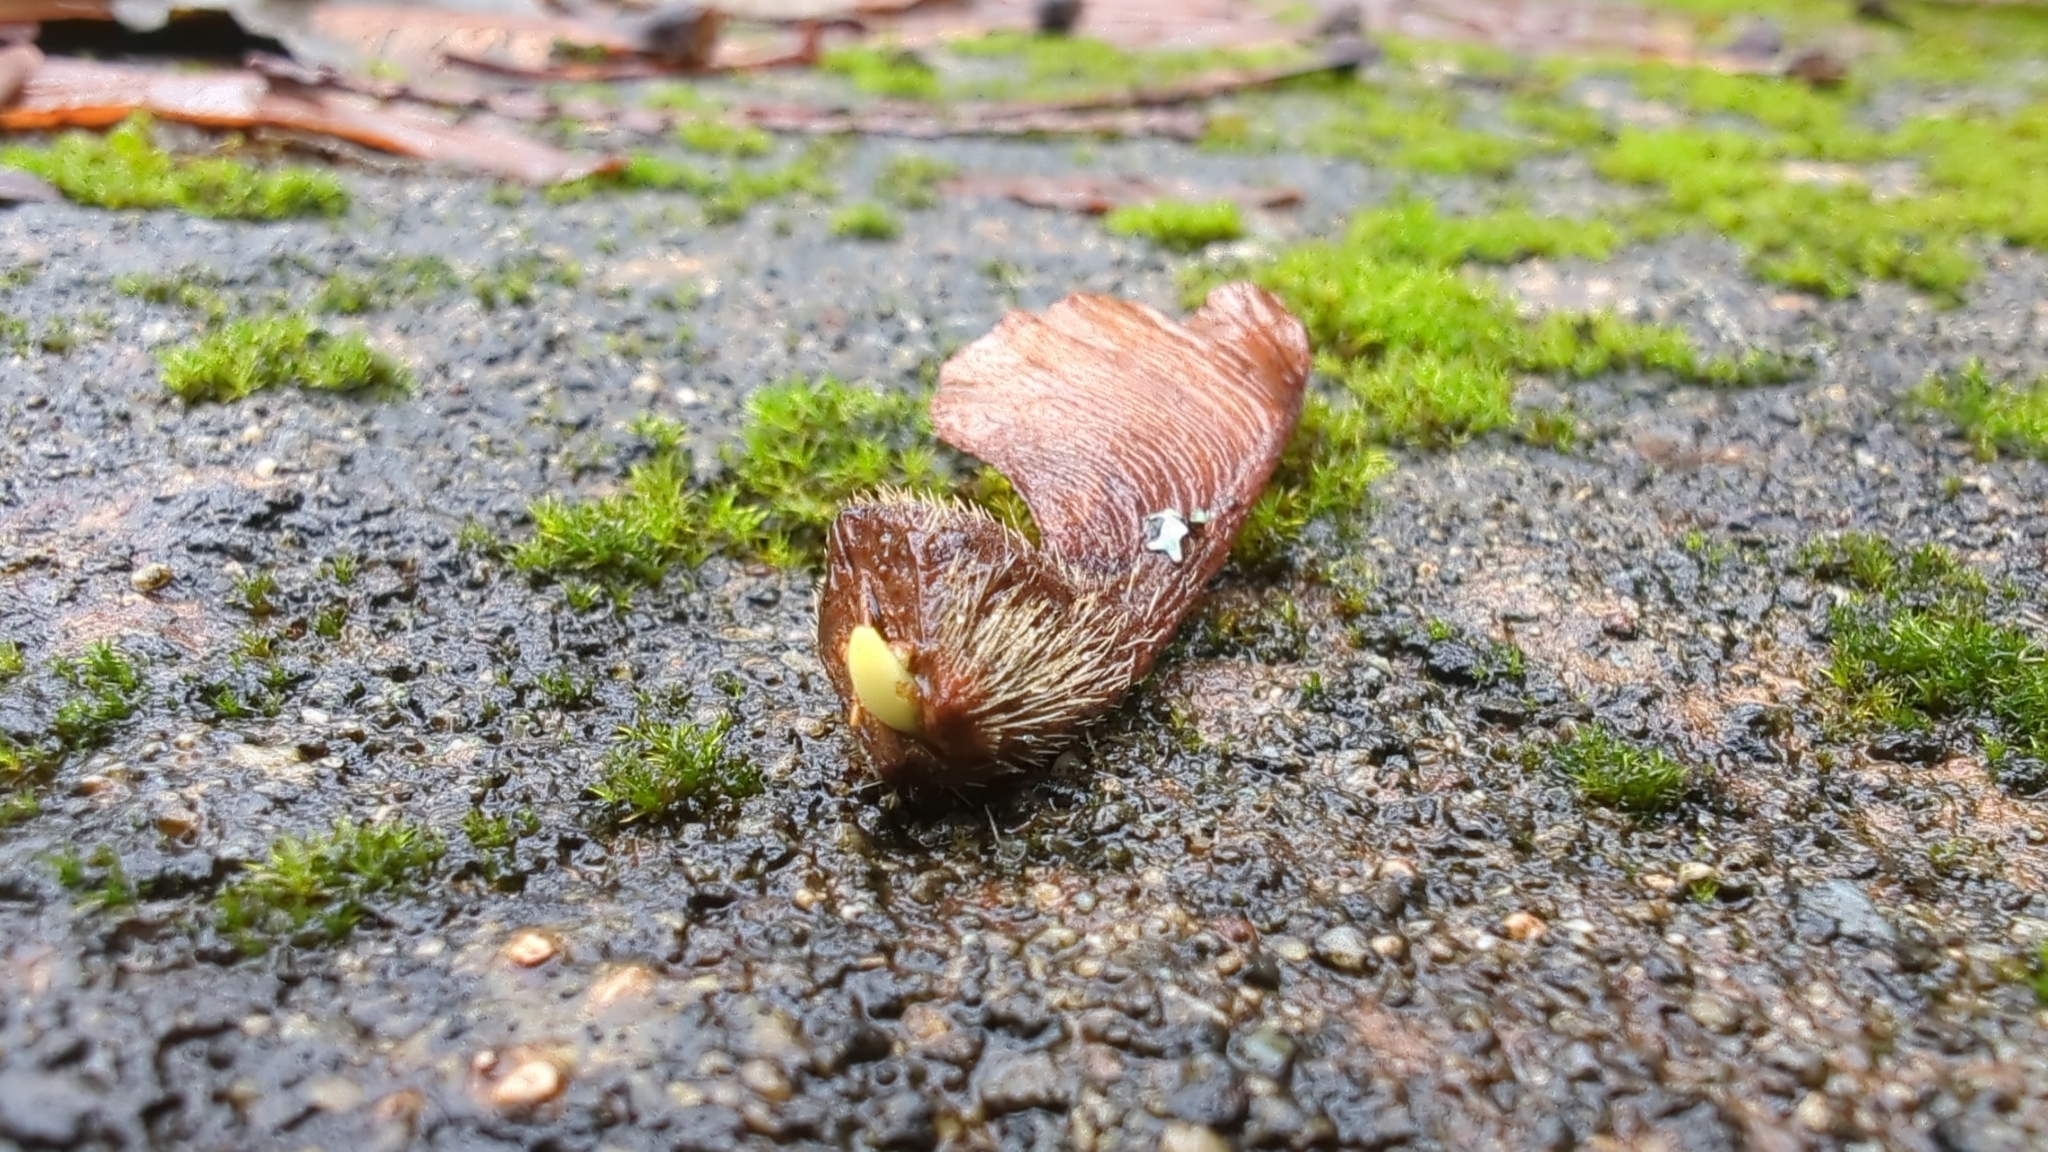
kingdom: Plantae
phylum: Tracheophyta
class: Magnoliopsida
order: Sapindales
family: Sapindaceae
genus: Acer
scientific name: Acer macrophyllum
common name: Oregon maple
